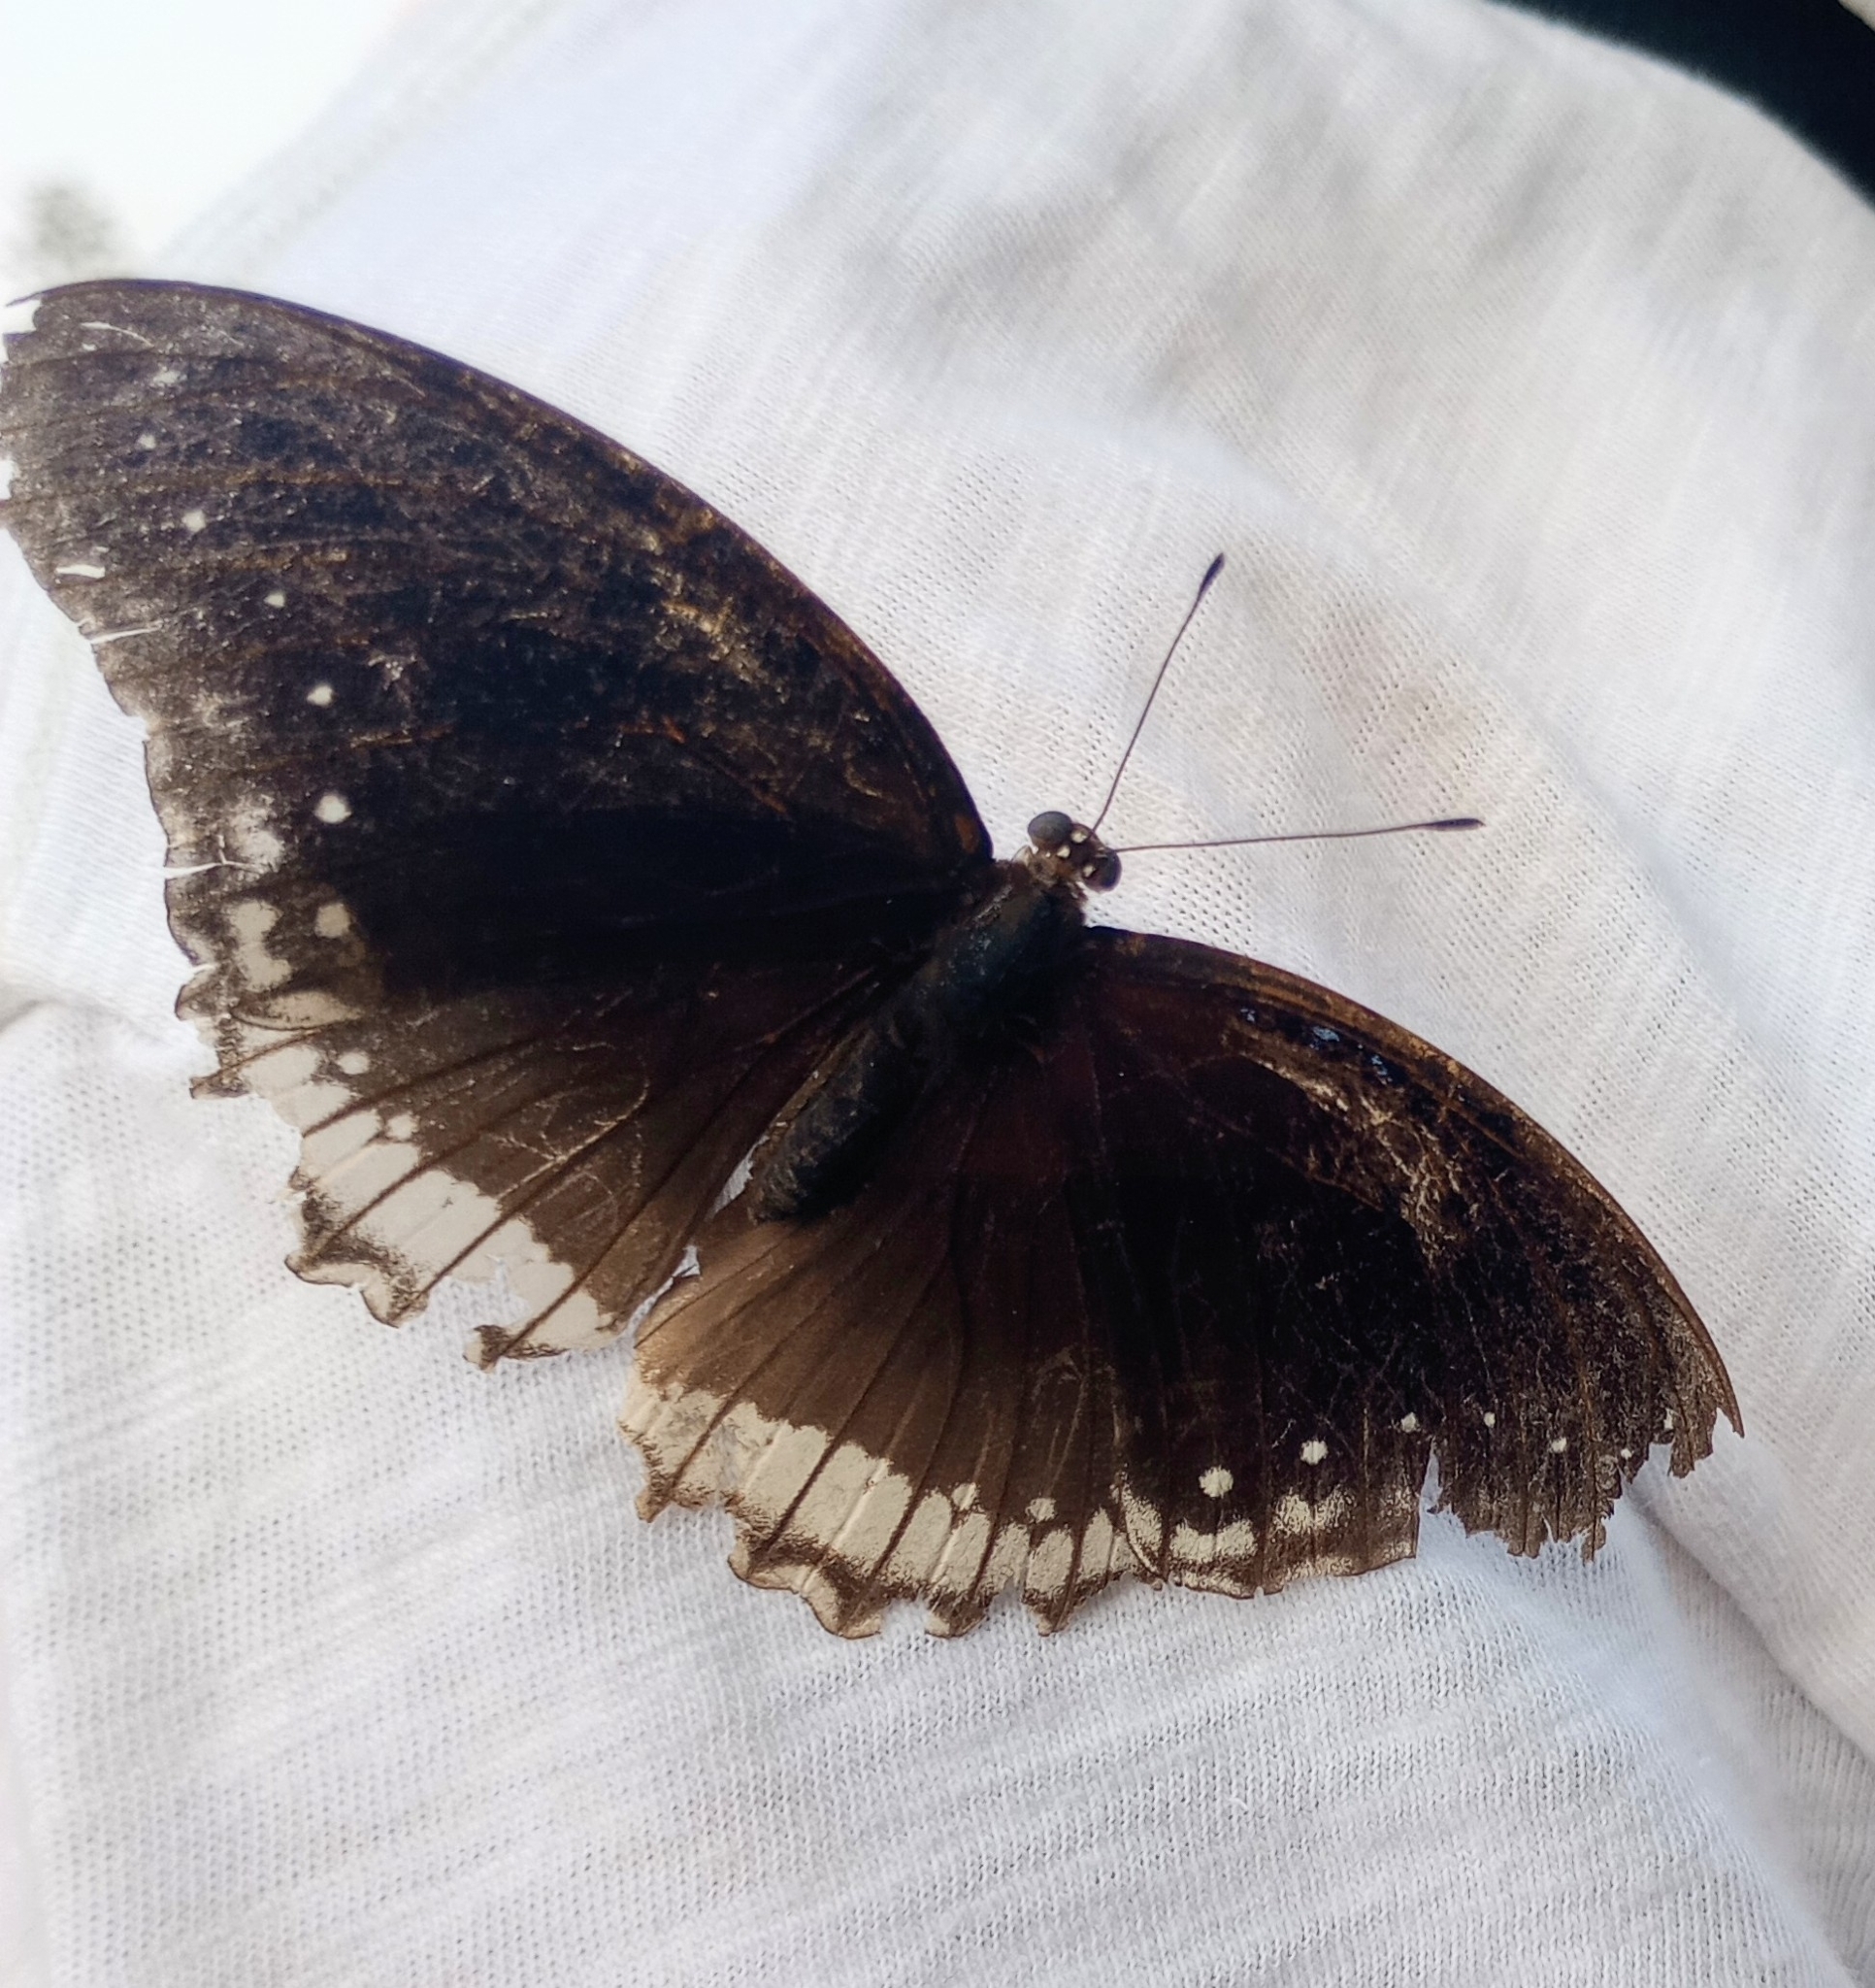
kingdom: Animalia
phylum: Arthropoda
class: Insecta
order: Lepidoptera
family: Nymphalidae
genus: Hypolimnas
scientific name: Hypolimnas bolina
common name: Great eggfly
